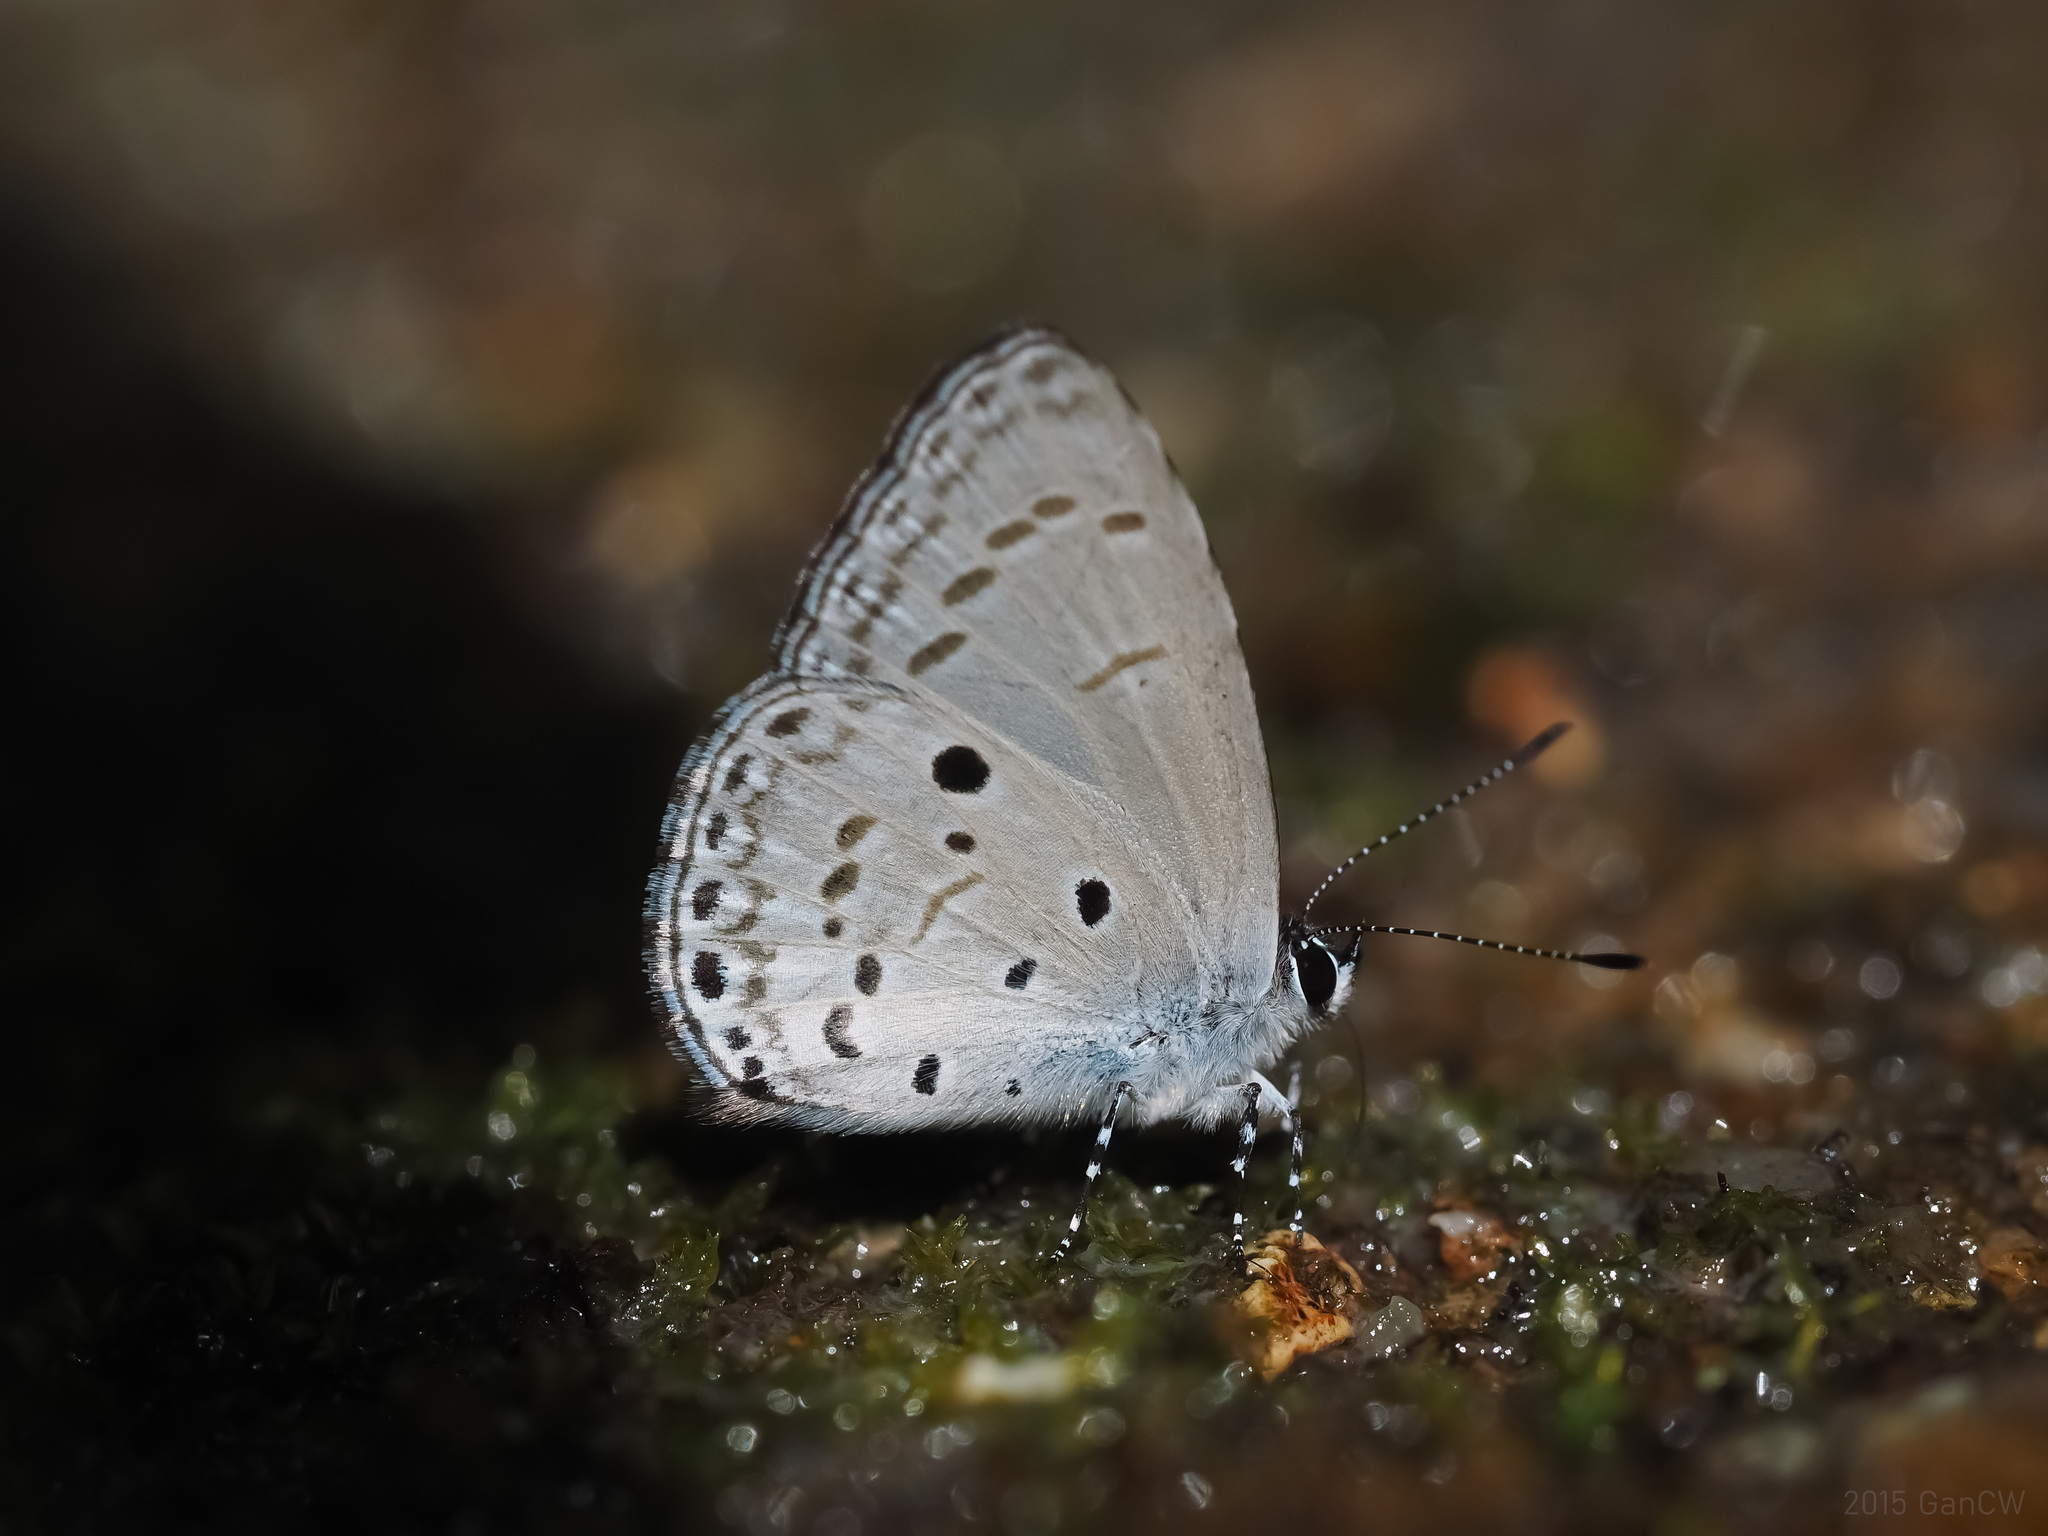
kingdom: Animalia
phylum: Arthropoda
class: Insecta
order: Lepidoptera
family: Lycaenidae
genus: Udara
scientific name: Udara
